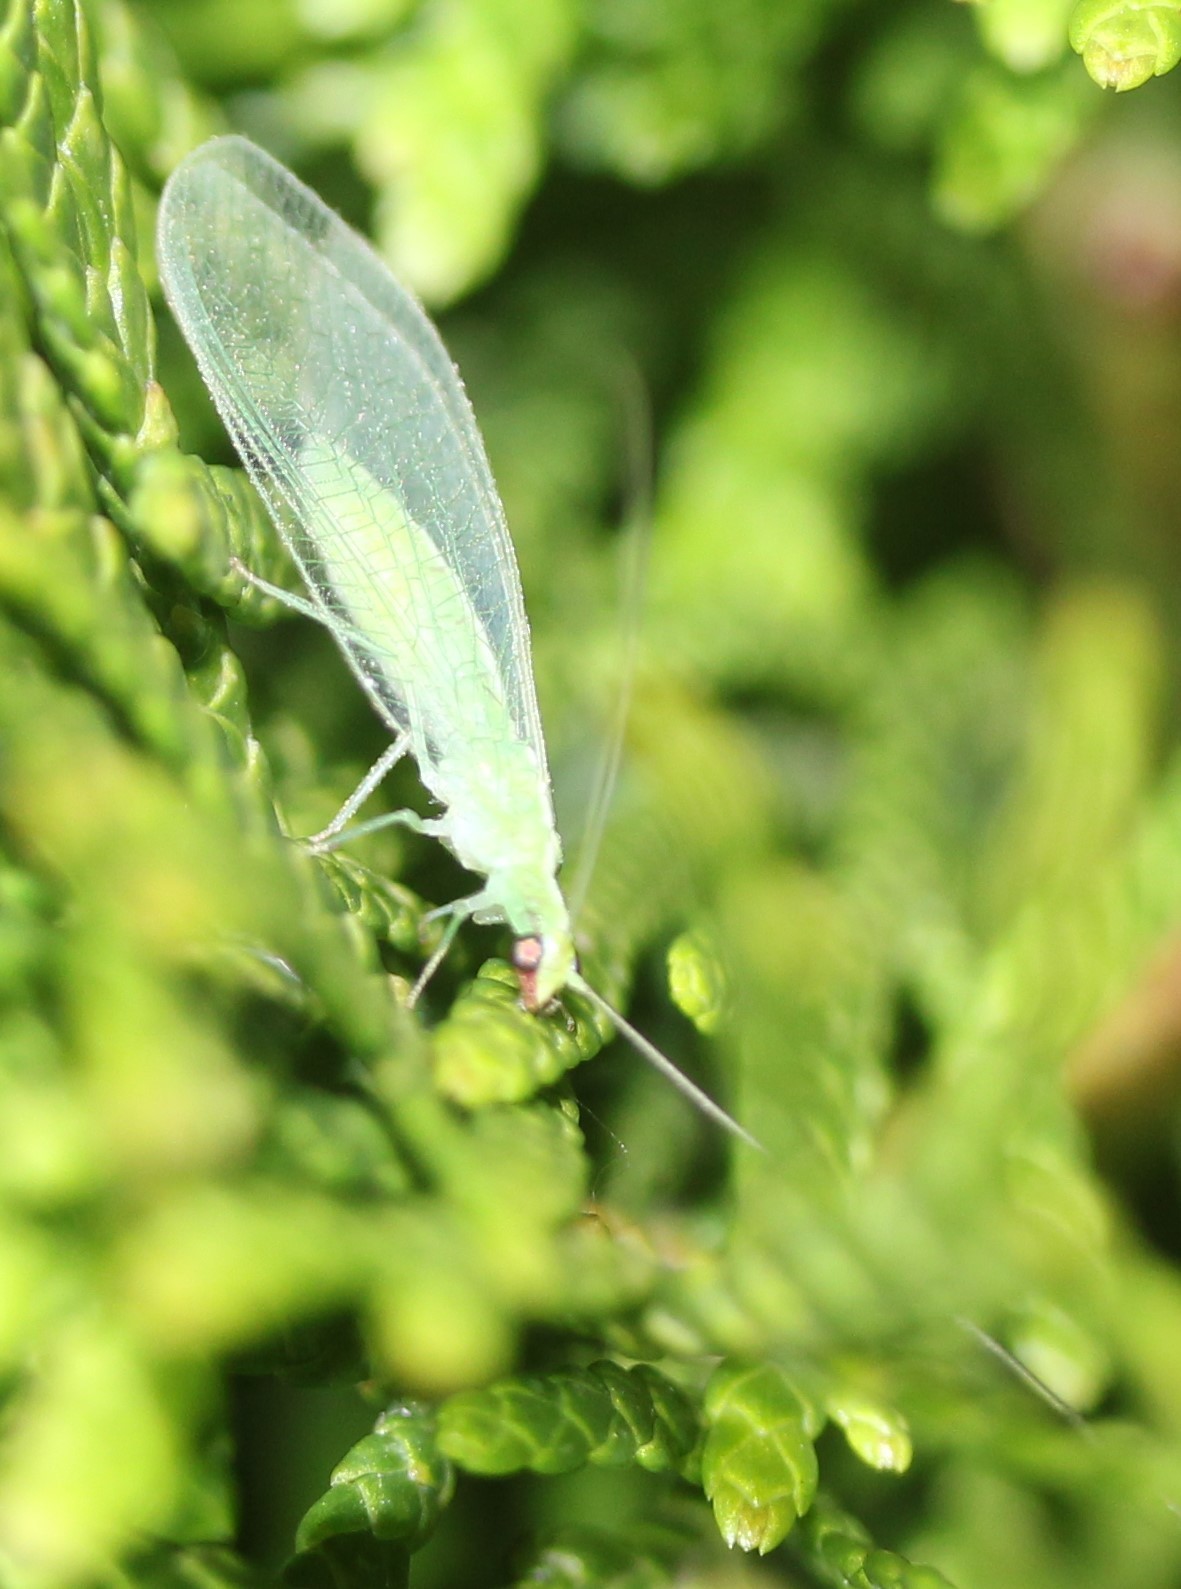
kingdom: Animalia
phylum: Arthropoda
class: Insecta
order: Neuroptera
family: Chrysopidae
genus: Chrysoperla
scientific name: Chrysoperla rufilabris
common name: Red-lipped green lacewing
